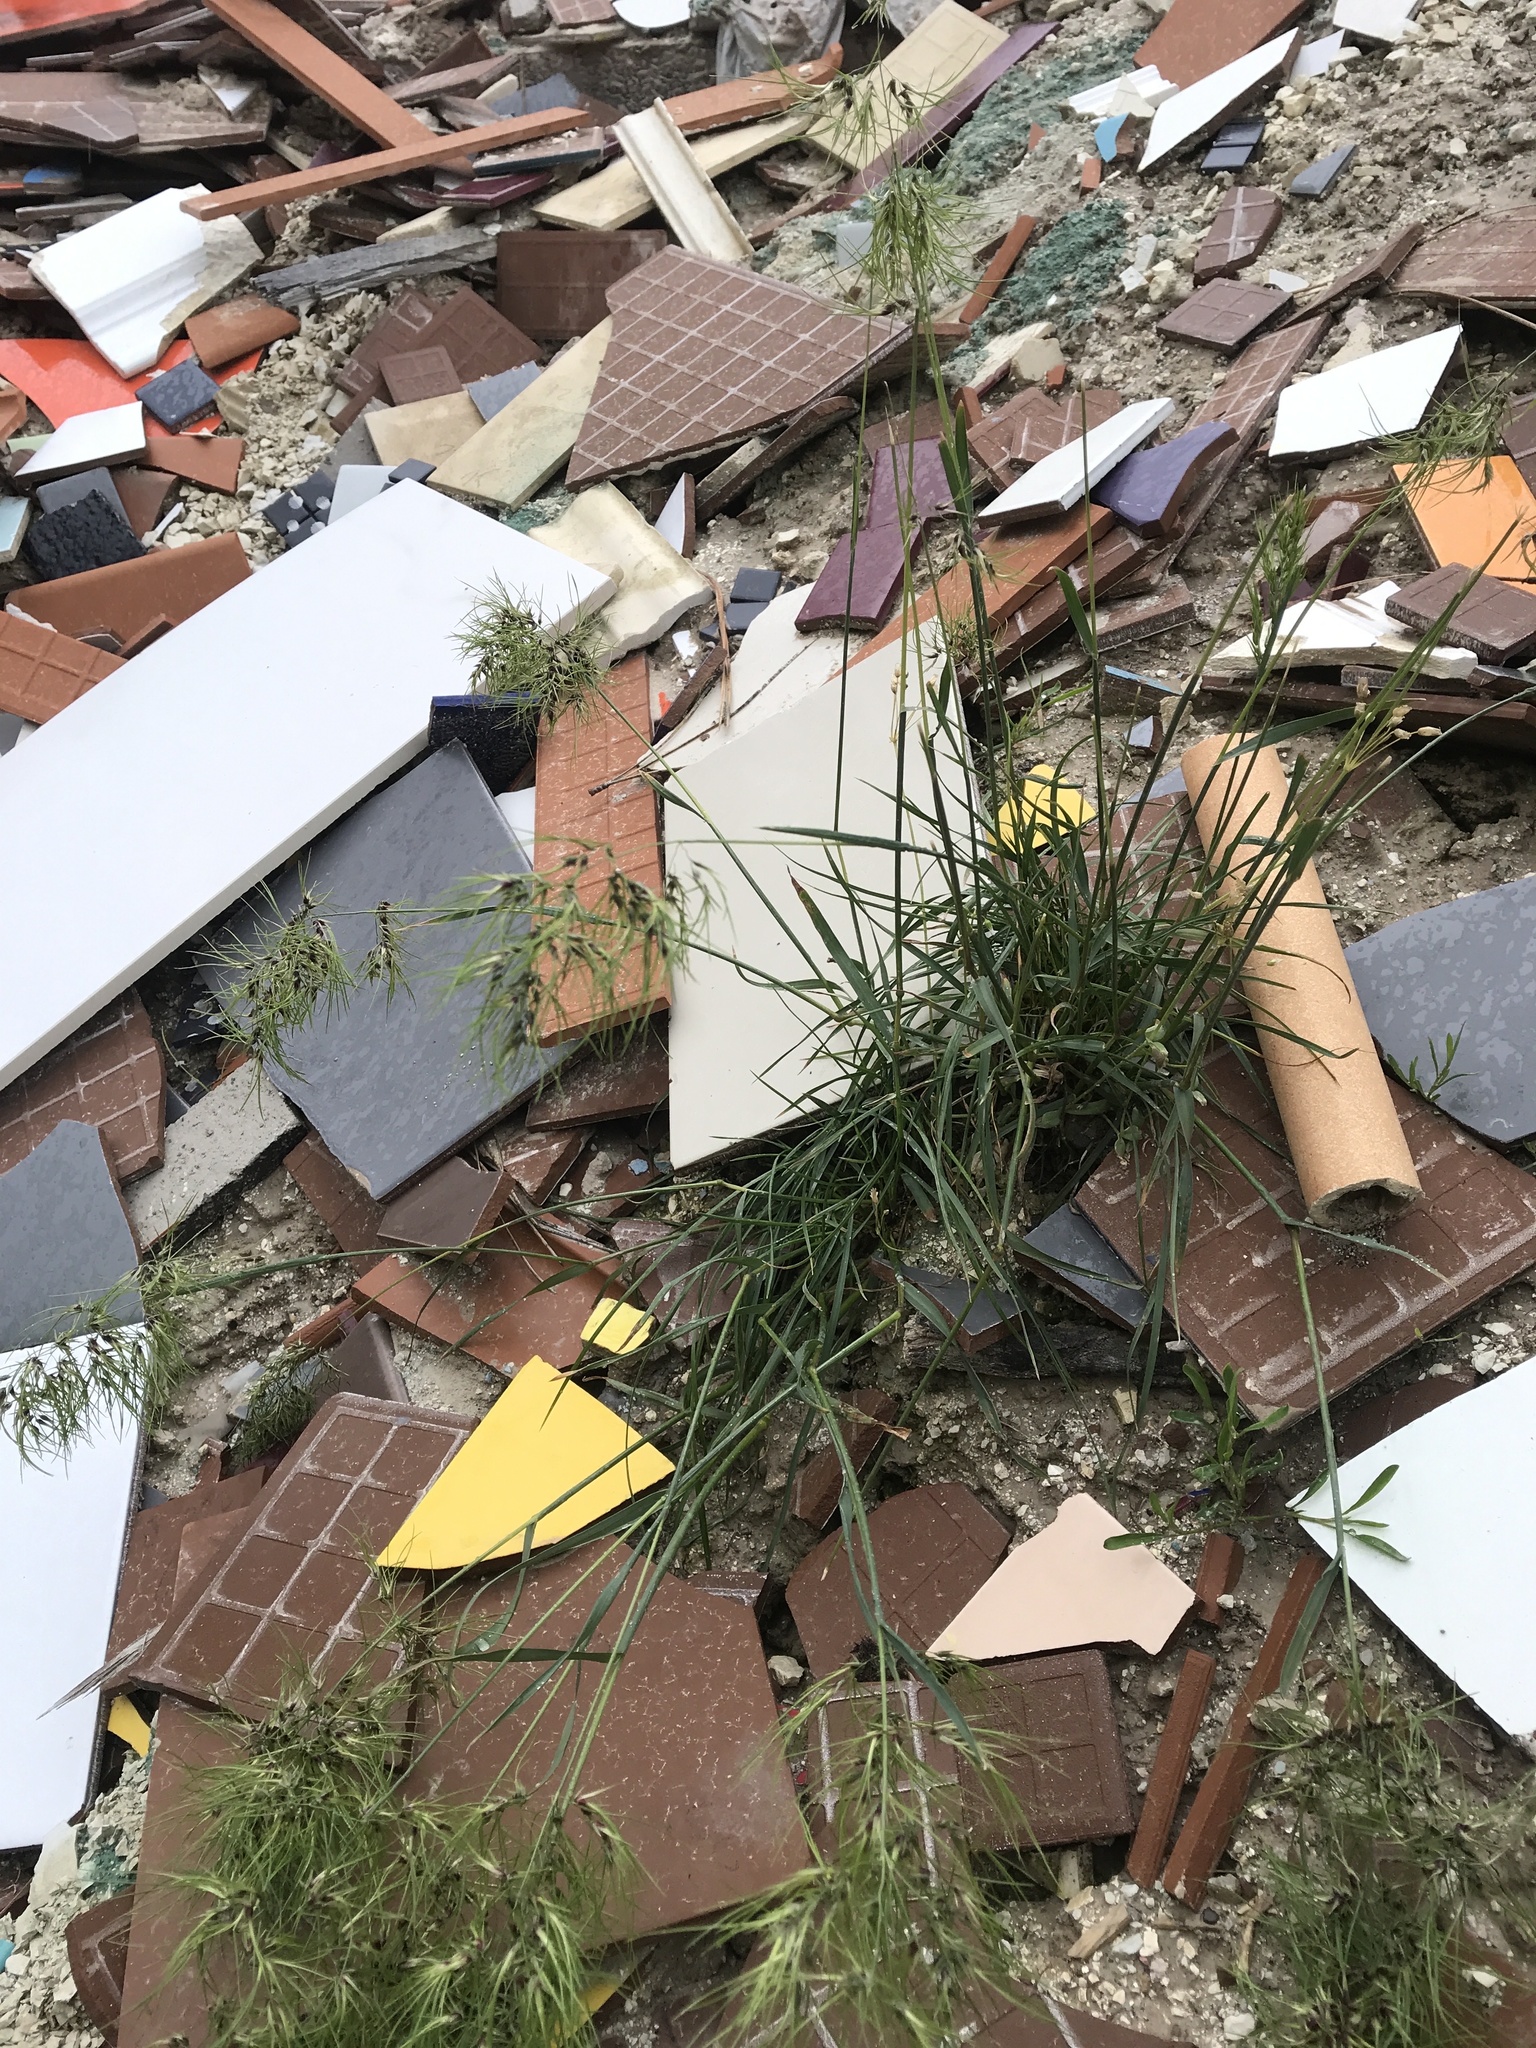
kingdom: Plantae
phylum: Tracheophyta
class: Liliopsida
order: Poales
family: Poaceae
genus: Poa
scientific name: Poa bulbosa
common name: Bulbous bluegrass
